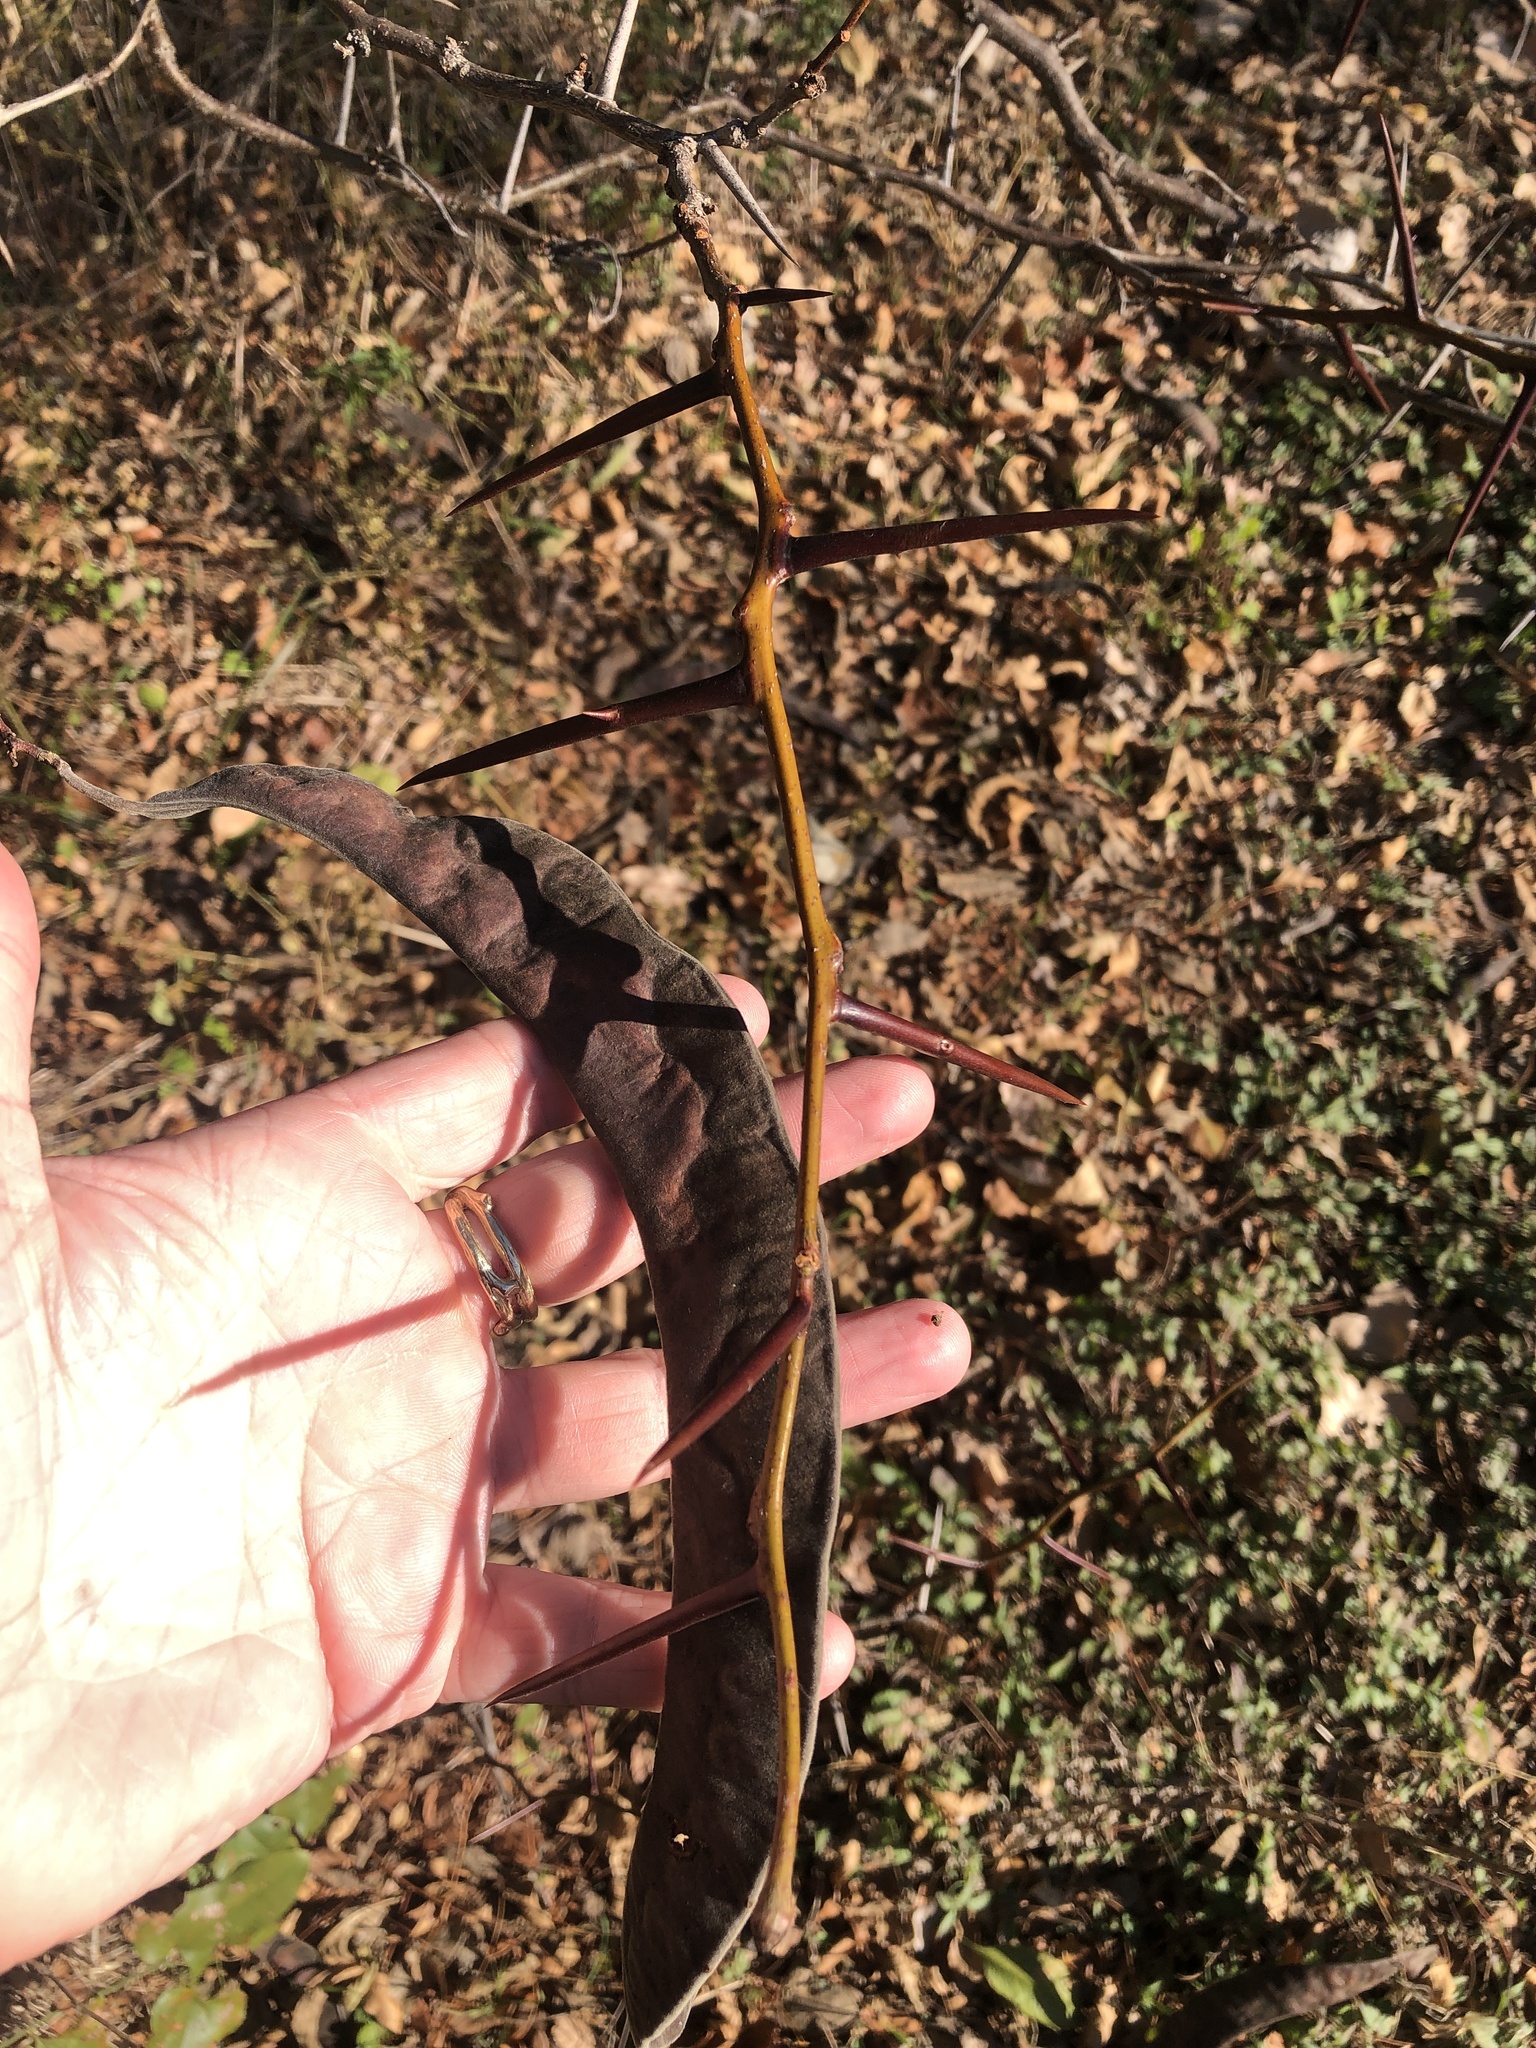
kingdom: Plantae
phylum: Tracheophyta
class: Magnoliopsida
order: Fabales
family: Fabaceae
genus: Gleditsia
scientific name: Gleditsia triacanthos
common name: Common honeylocust
